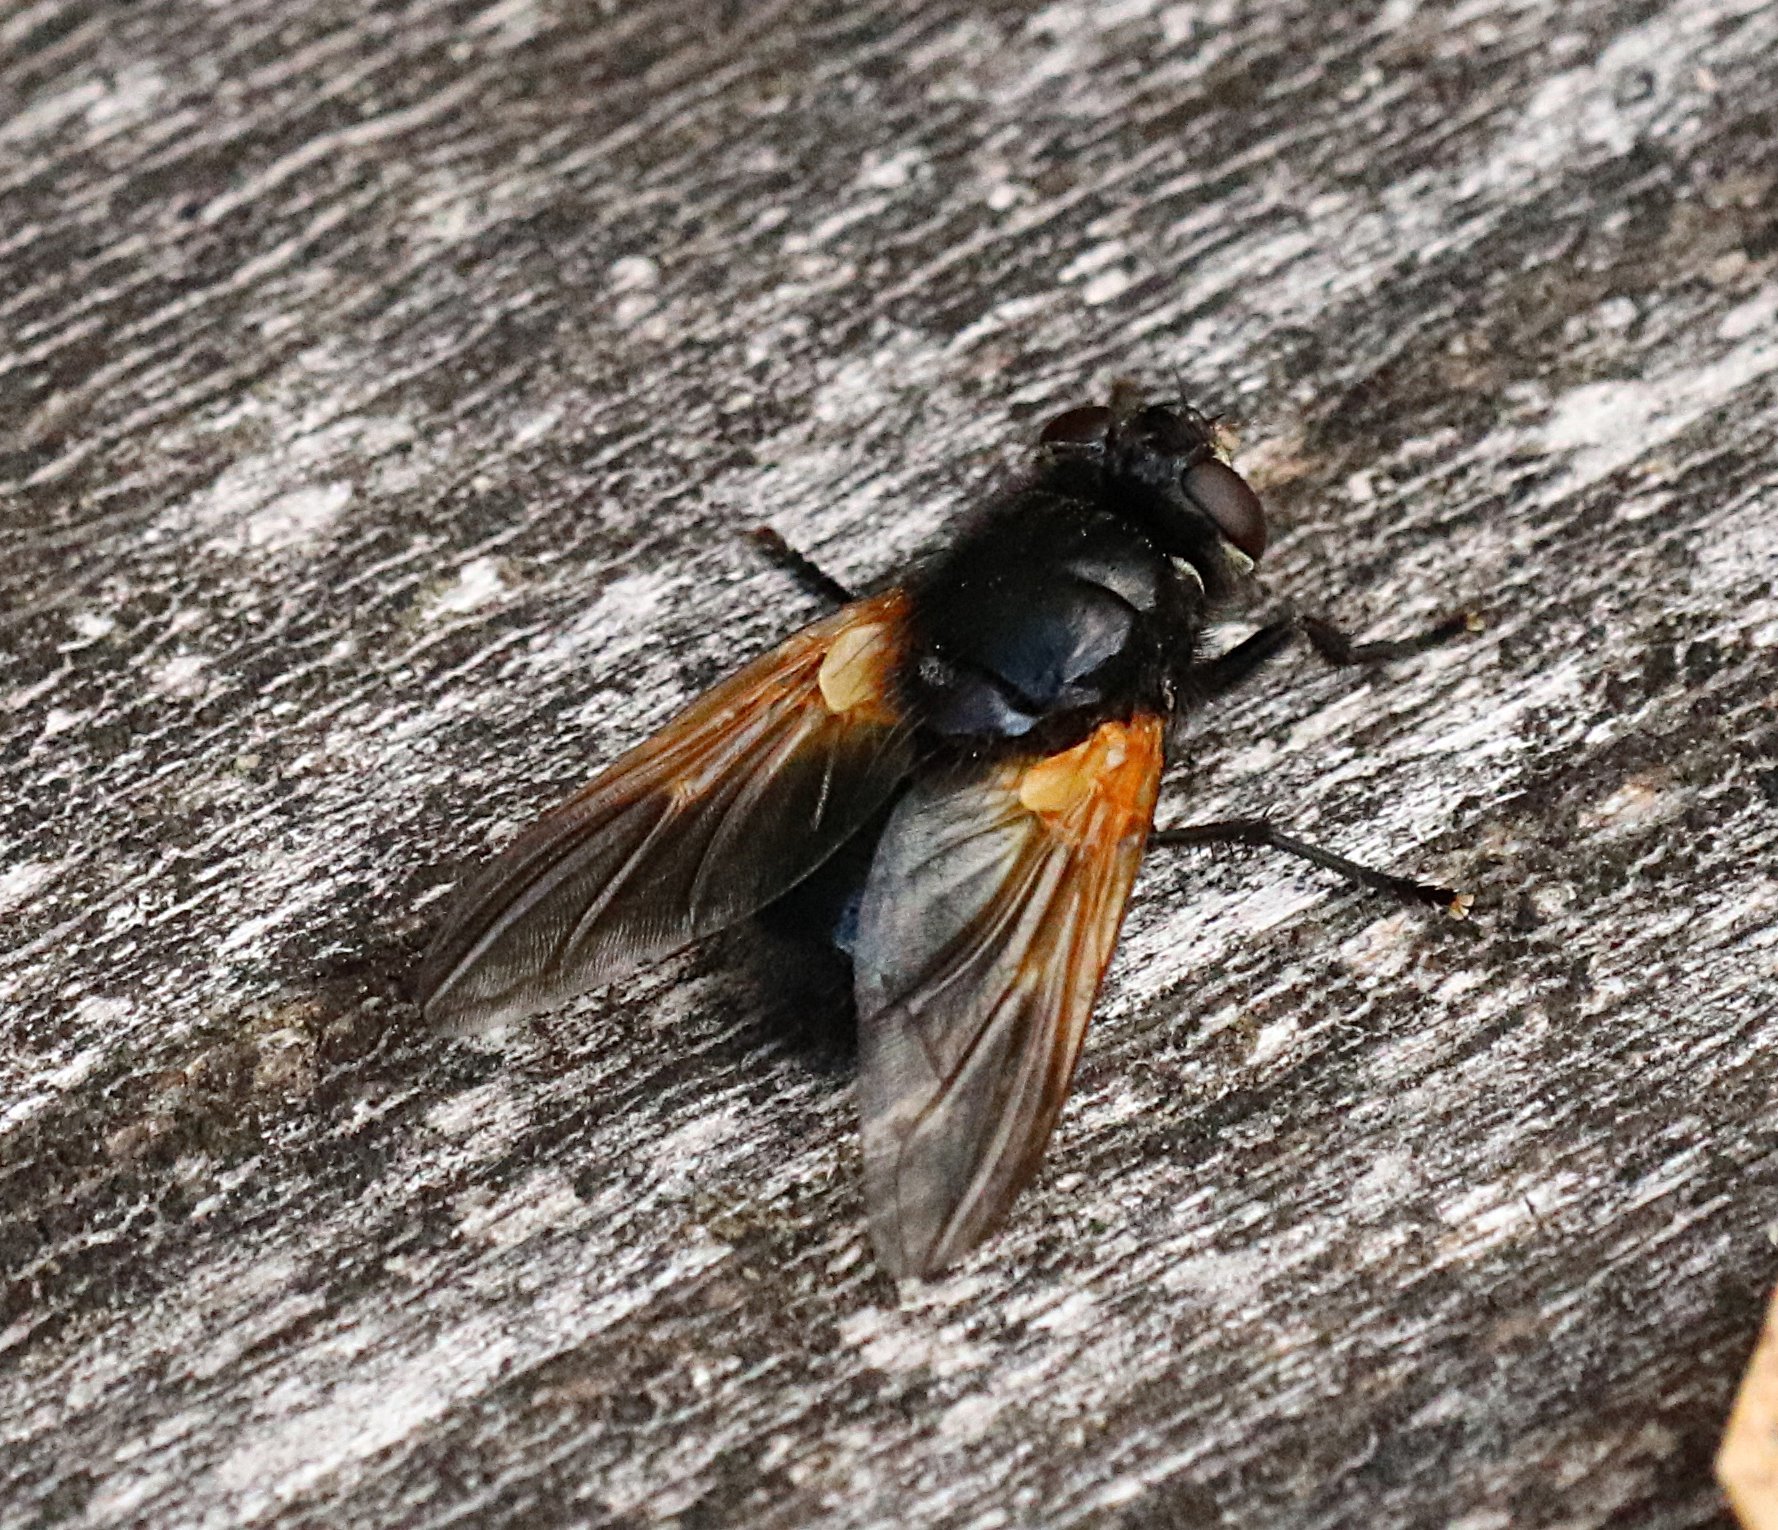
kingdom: Animalia
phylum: Arthropoda
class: Insecta
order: Diptera
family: Muscidae
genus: Mesembrina
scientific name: Mesembrina meridiana
